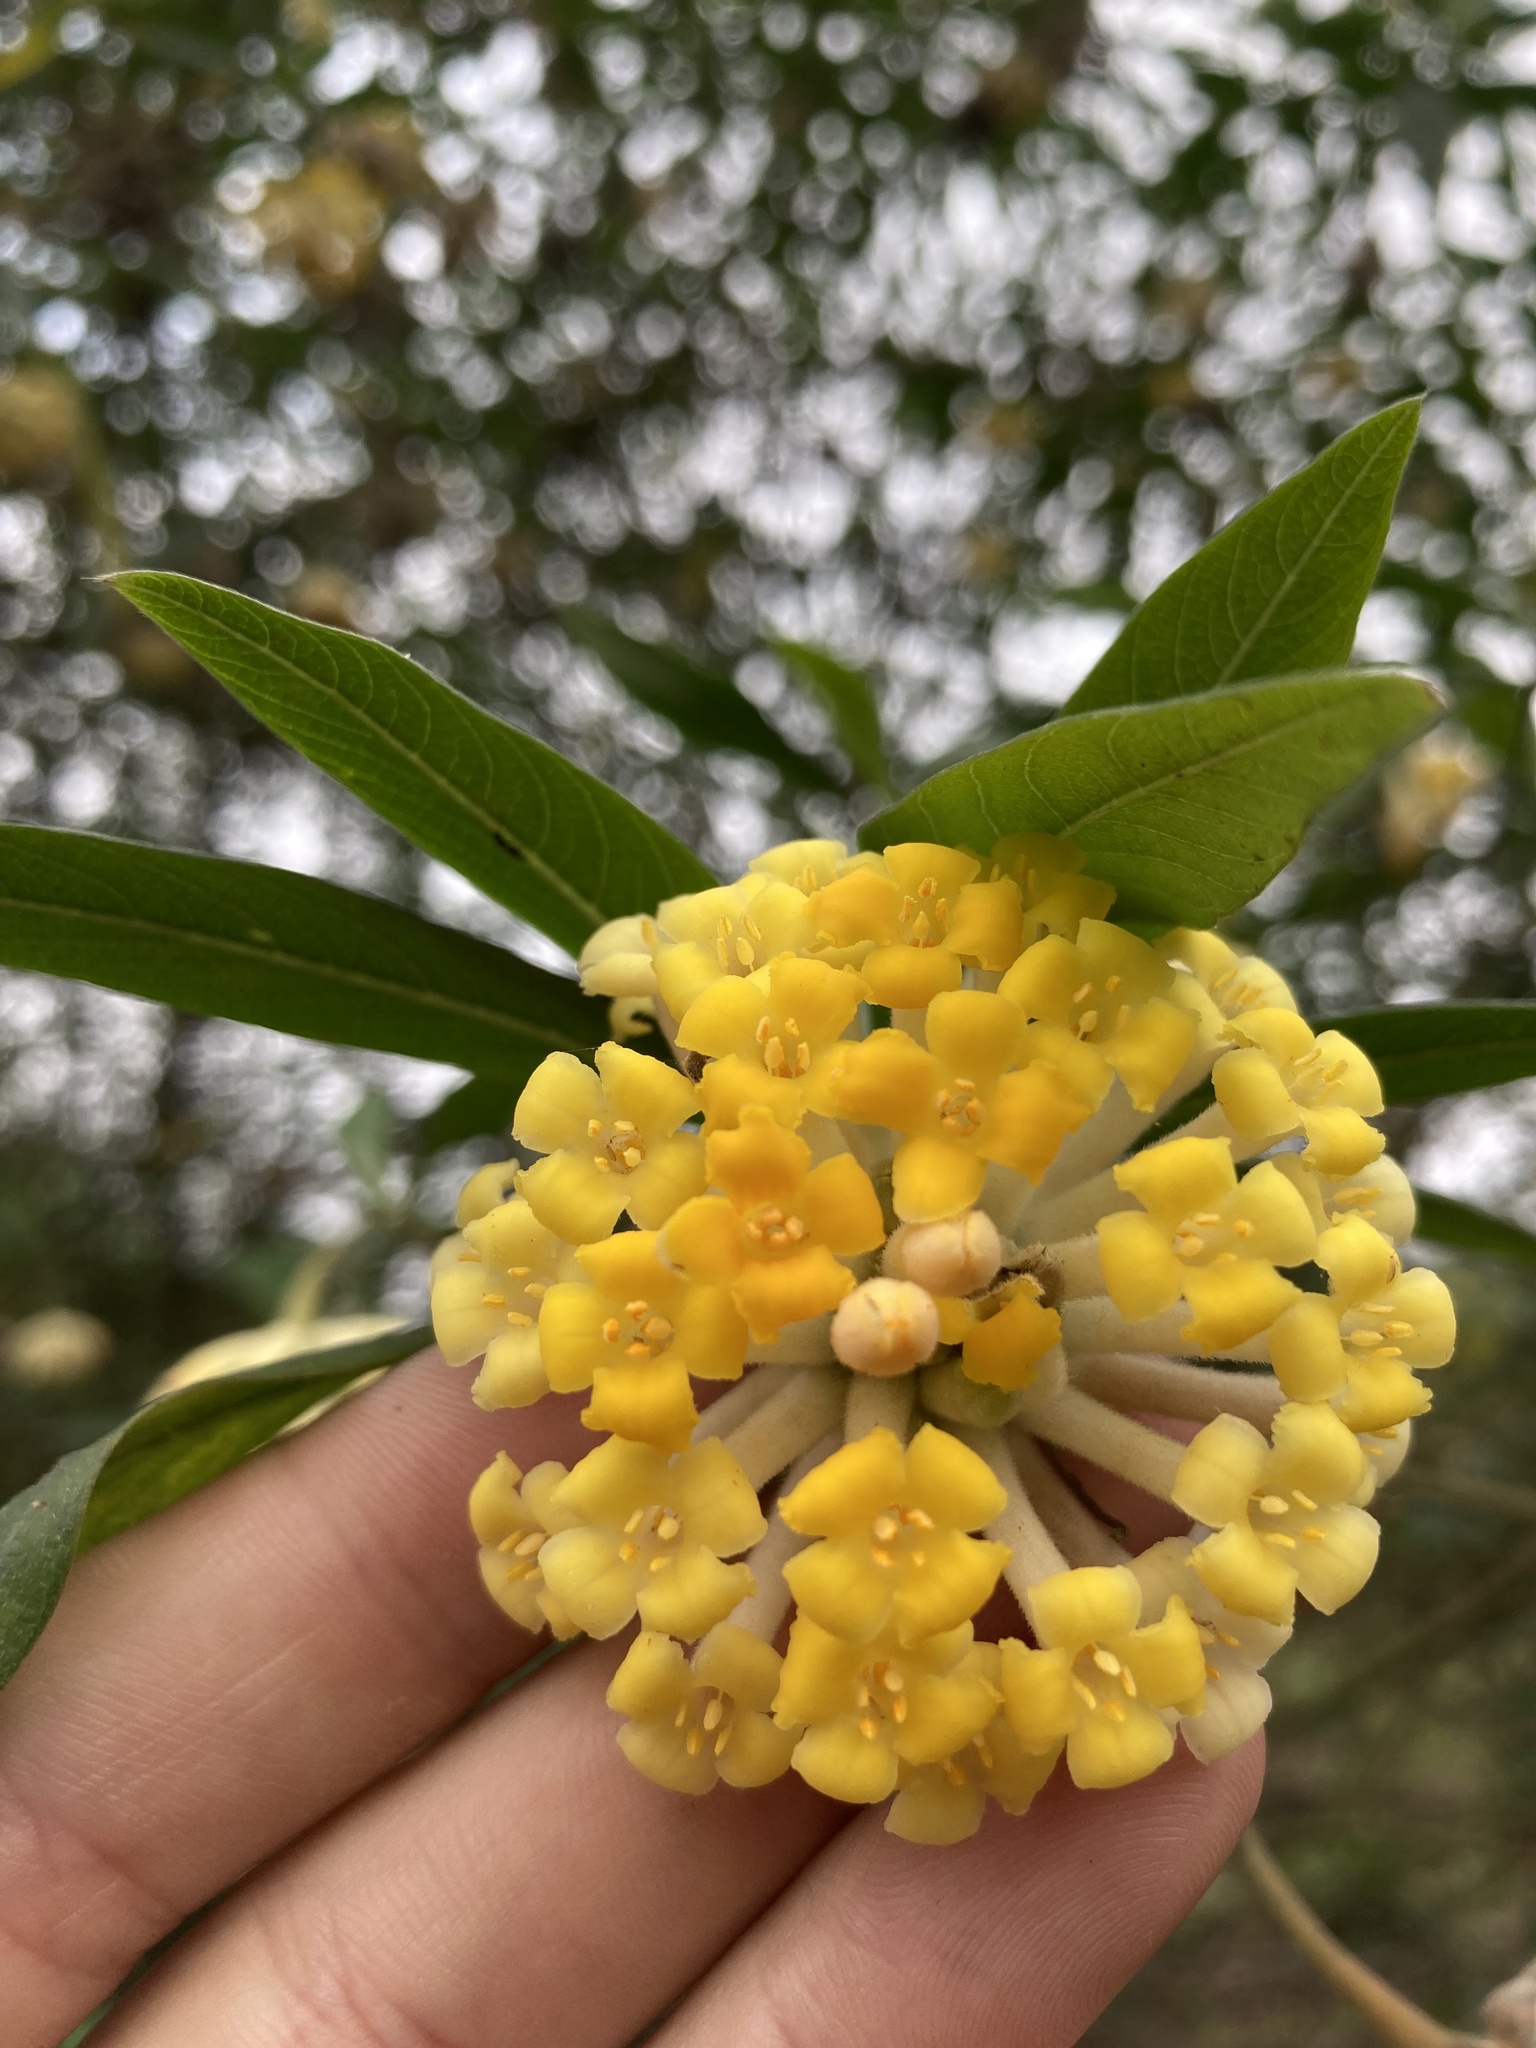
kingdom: Plantae
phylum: Tracheophyta
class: Magnoliopsida
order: Malvales
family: Thymelaeaceae
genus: Edgeworthia
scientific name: Edgeworthia gardneri
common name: Nepalese paperbush
